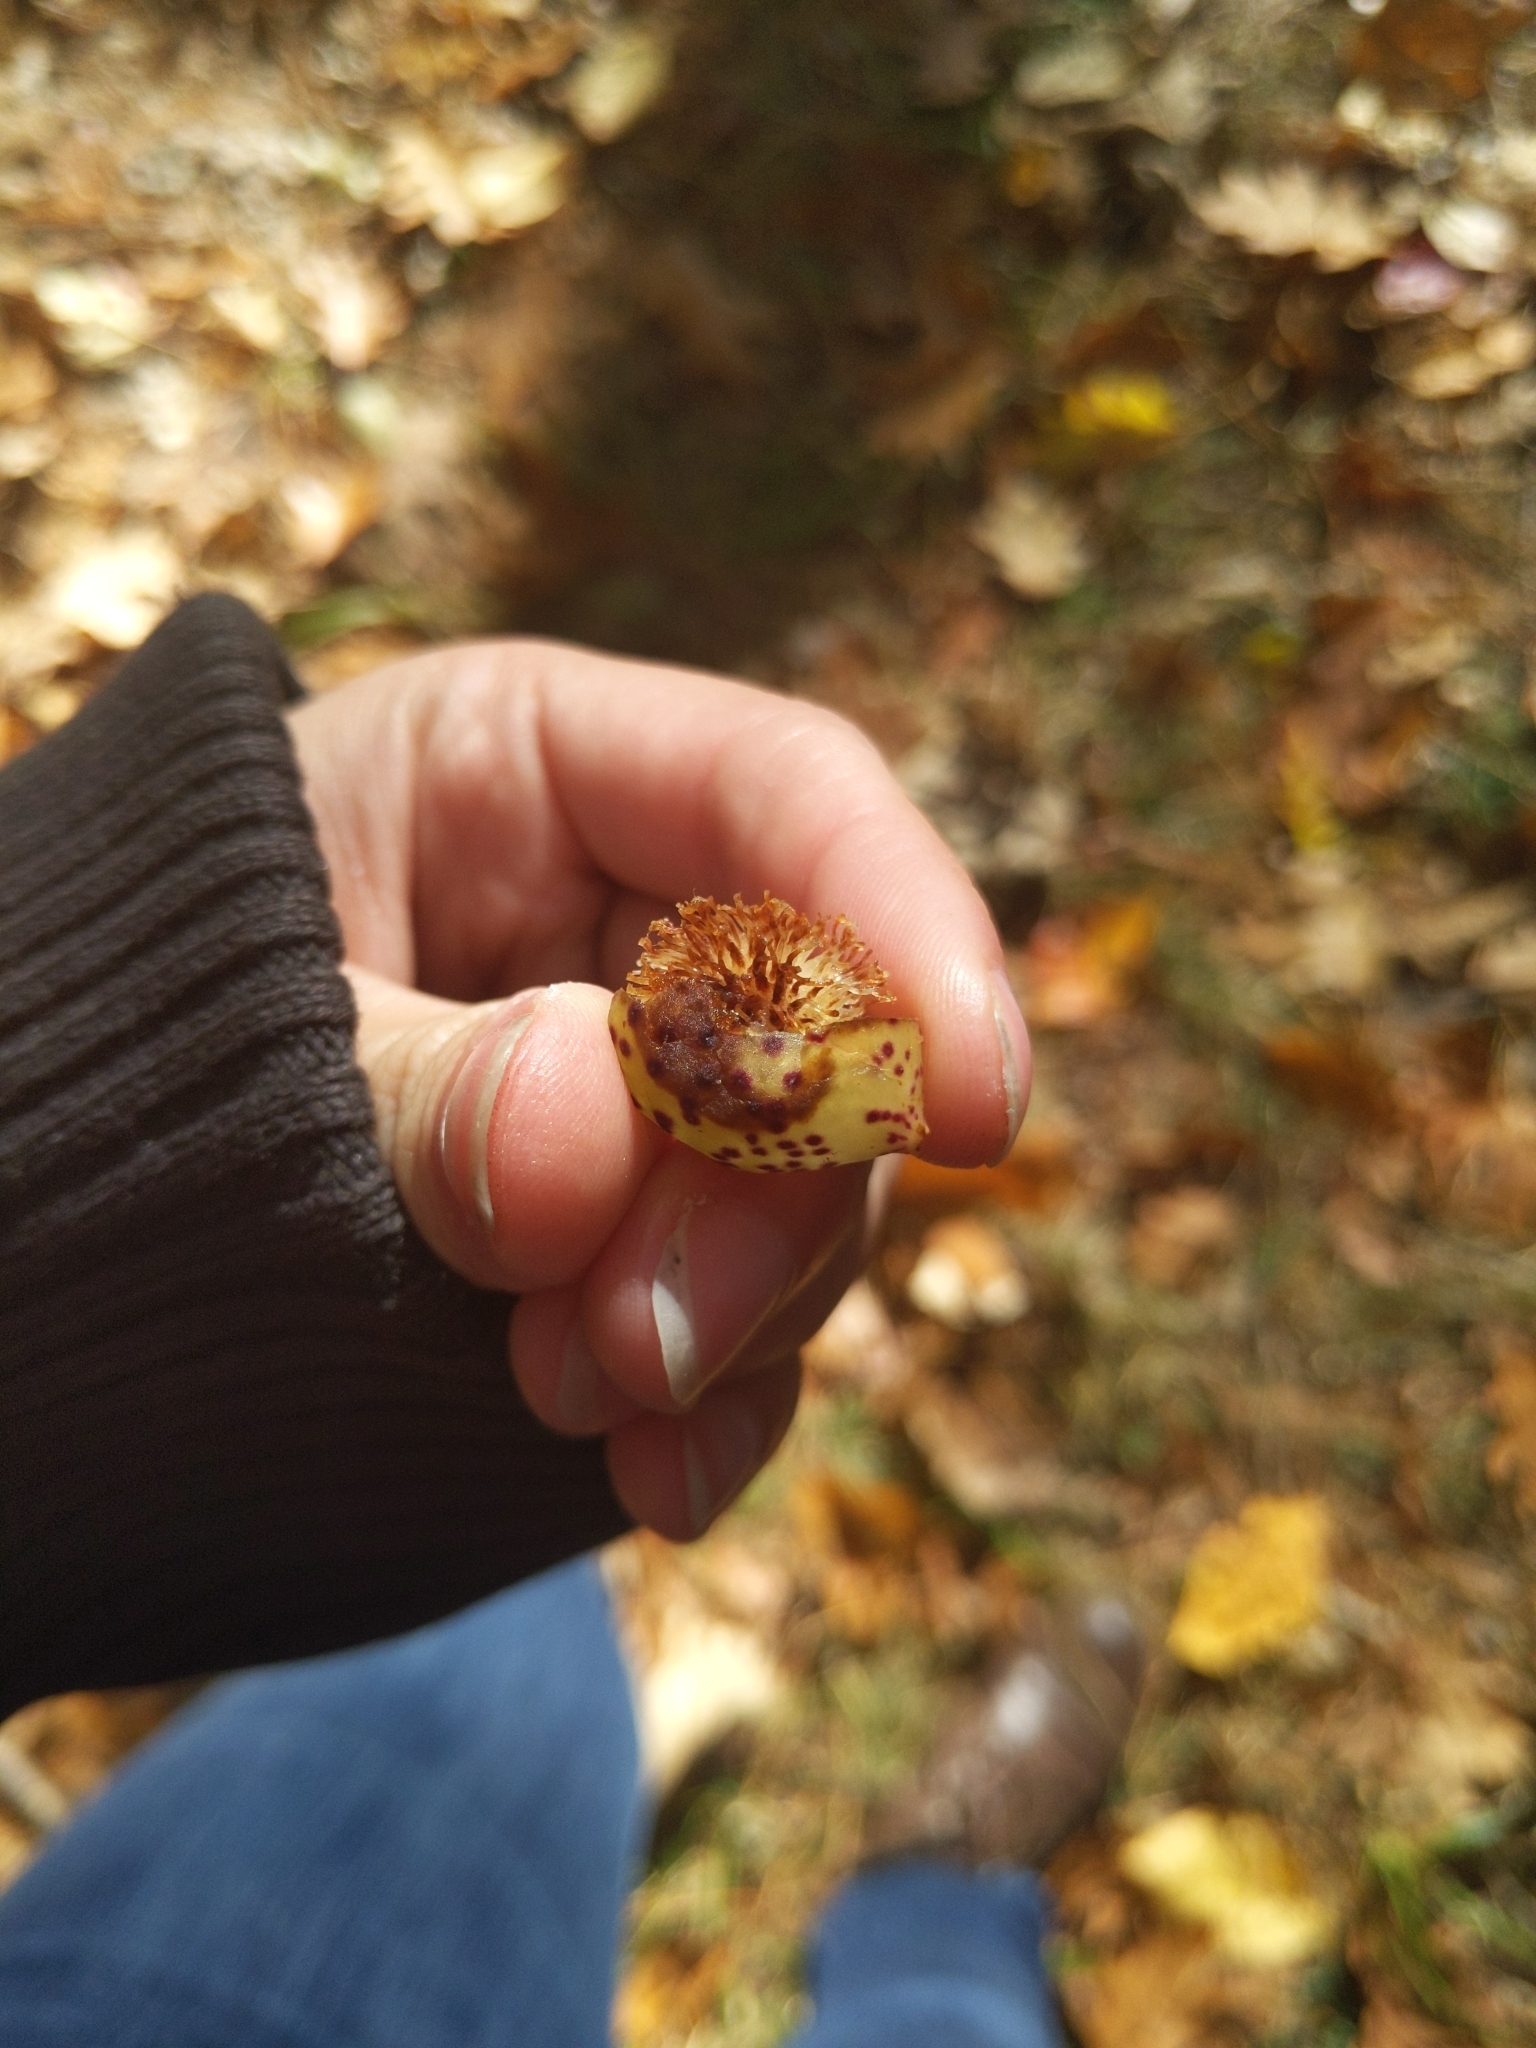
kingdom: Animalia
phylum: Arthropoda
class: Insecta
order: Hymenoptera
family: Cynipidae
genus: Amphibolips
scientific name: Amphibolips
